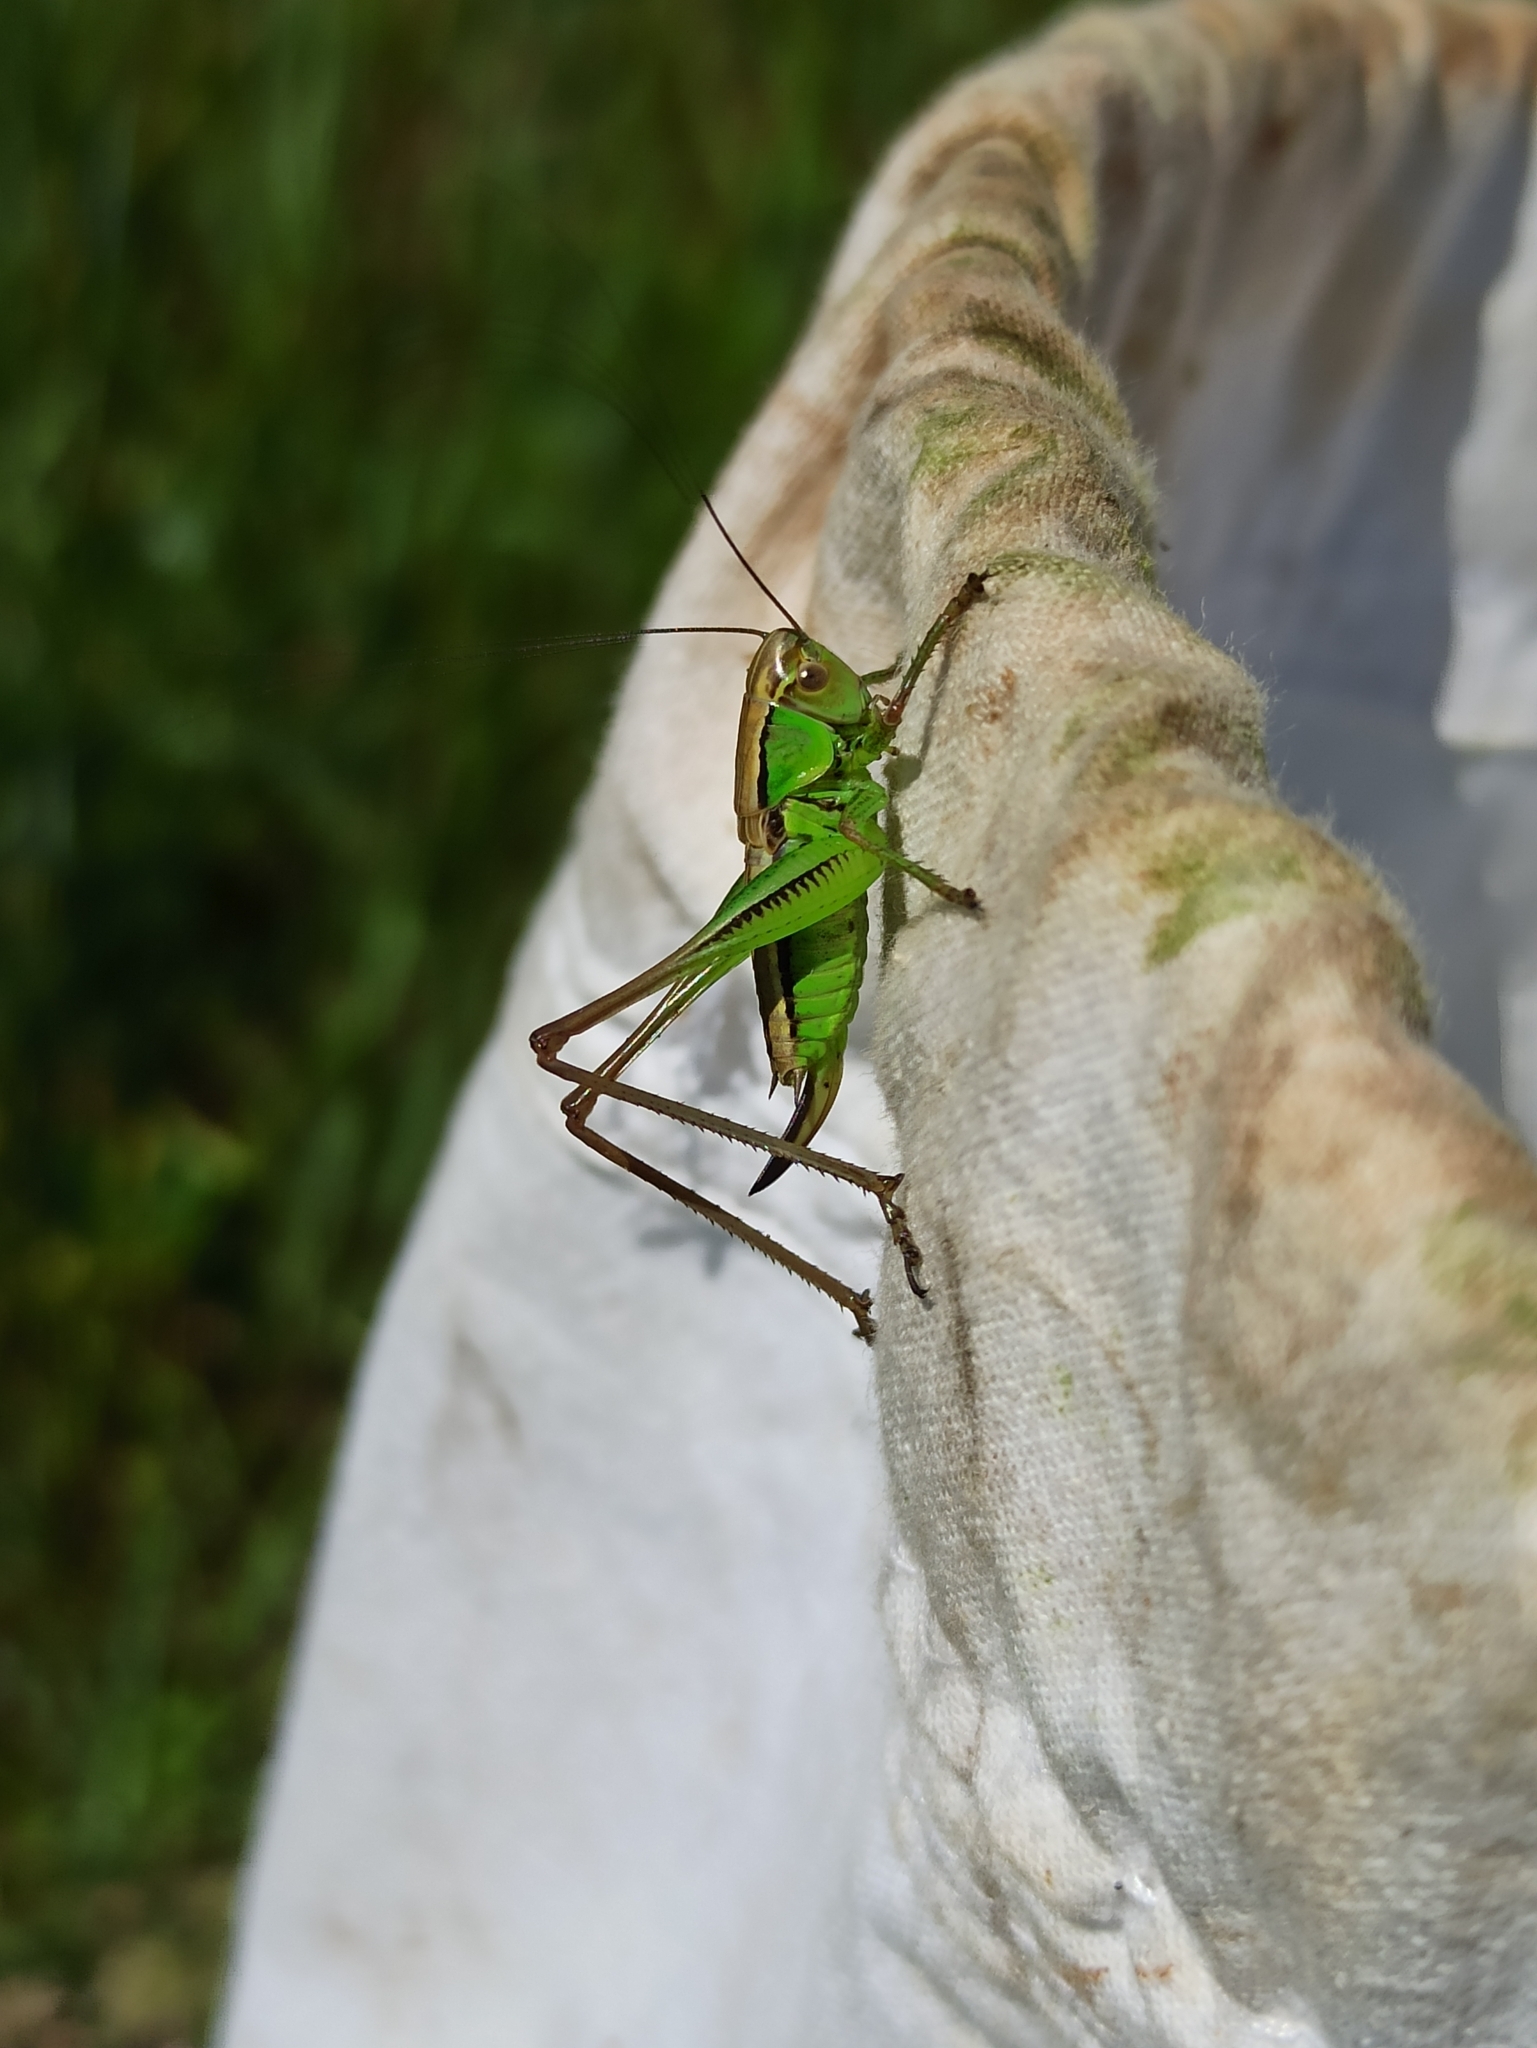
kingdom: Animalia
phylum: Arthropoda
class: Insecta
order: Orthoptera
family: Tettigoniidae
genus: Roeseliana
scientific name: Roeseliana roeselii
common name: Roesel's bush cricket
